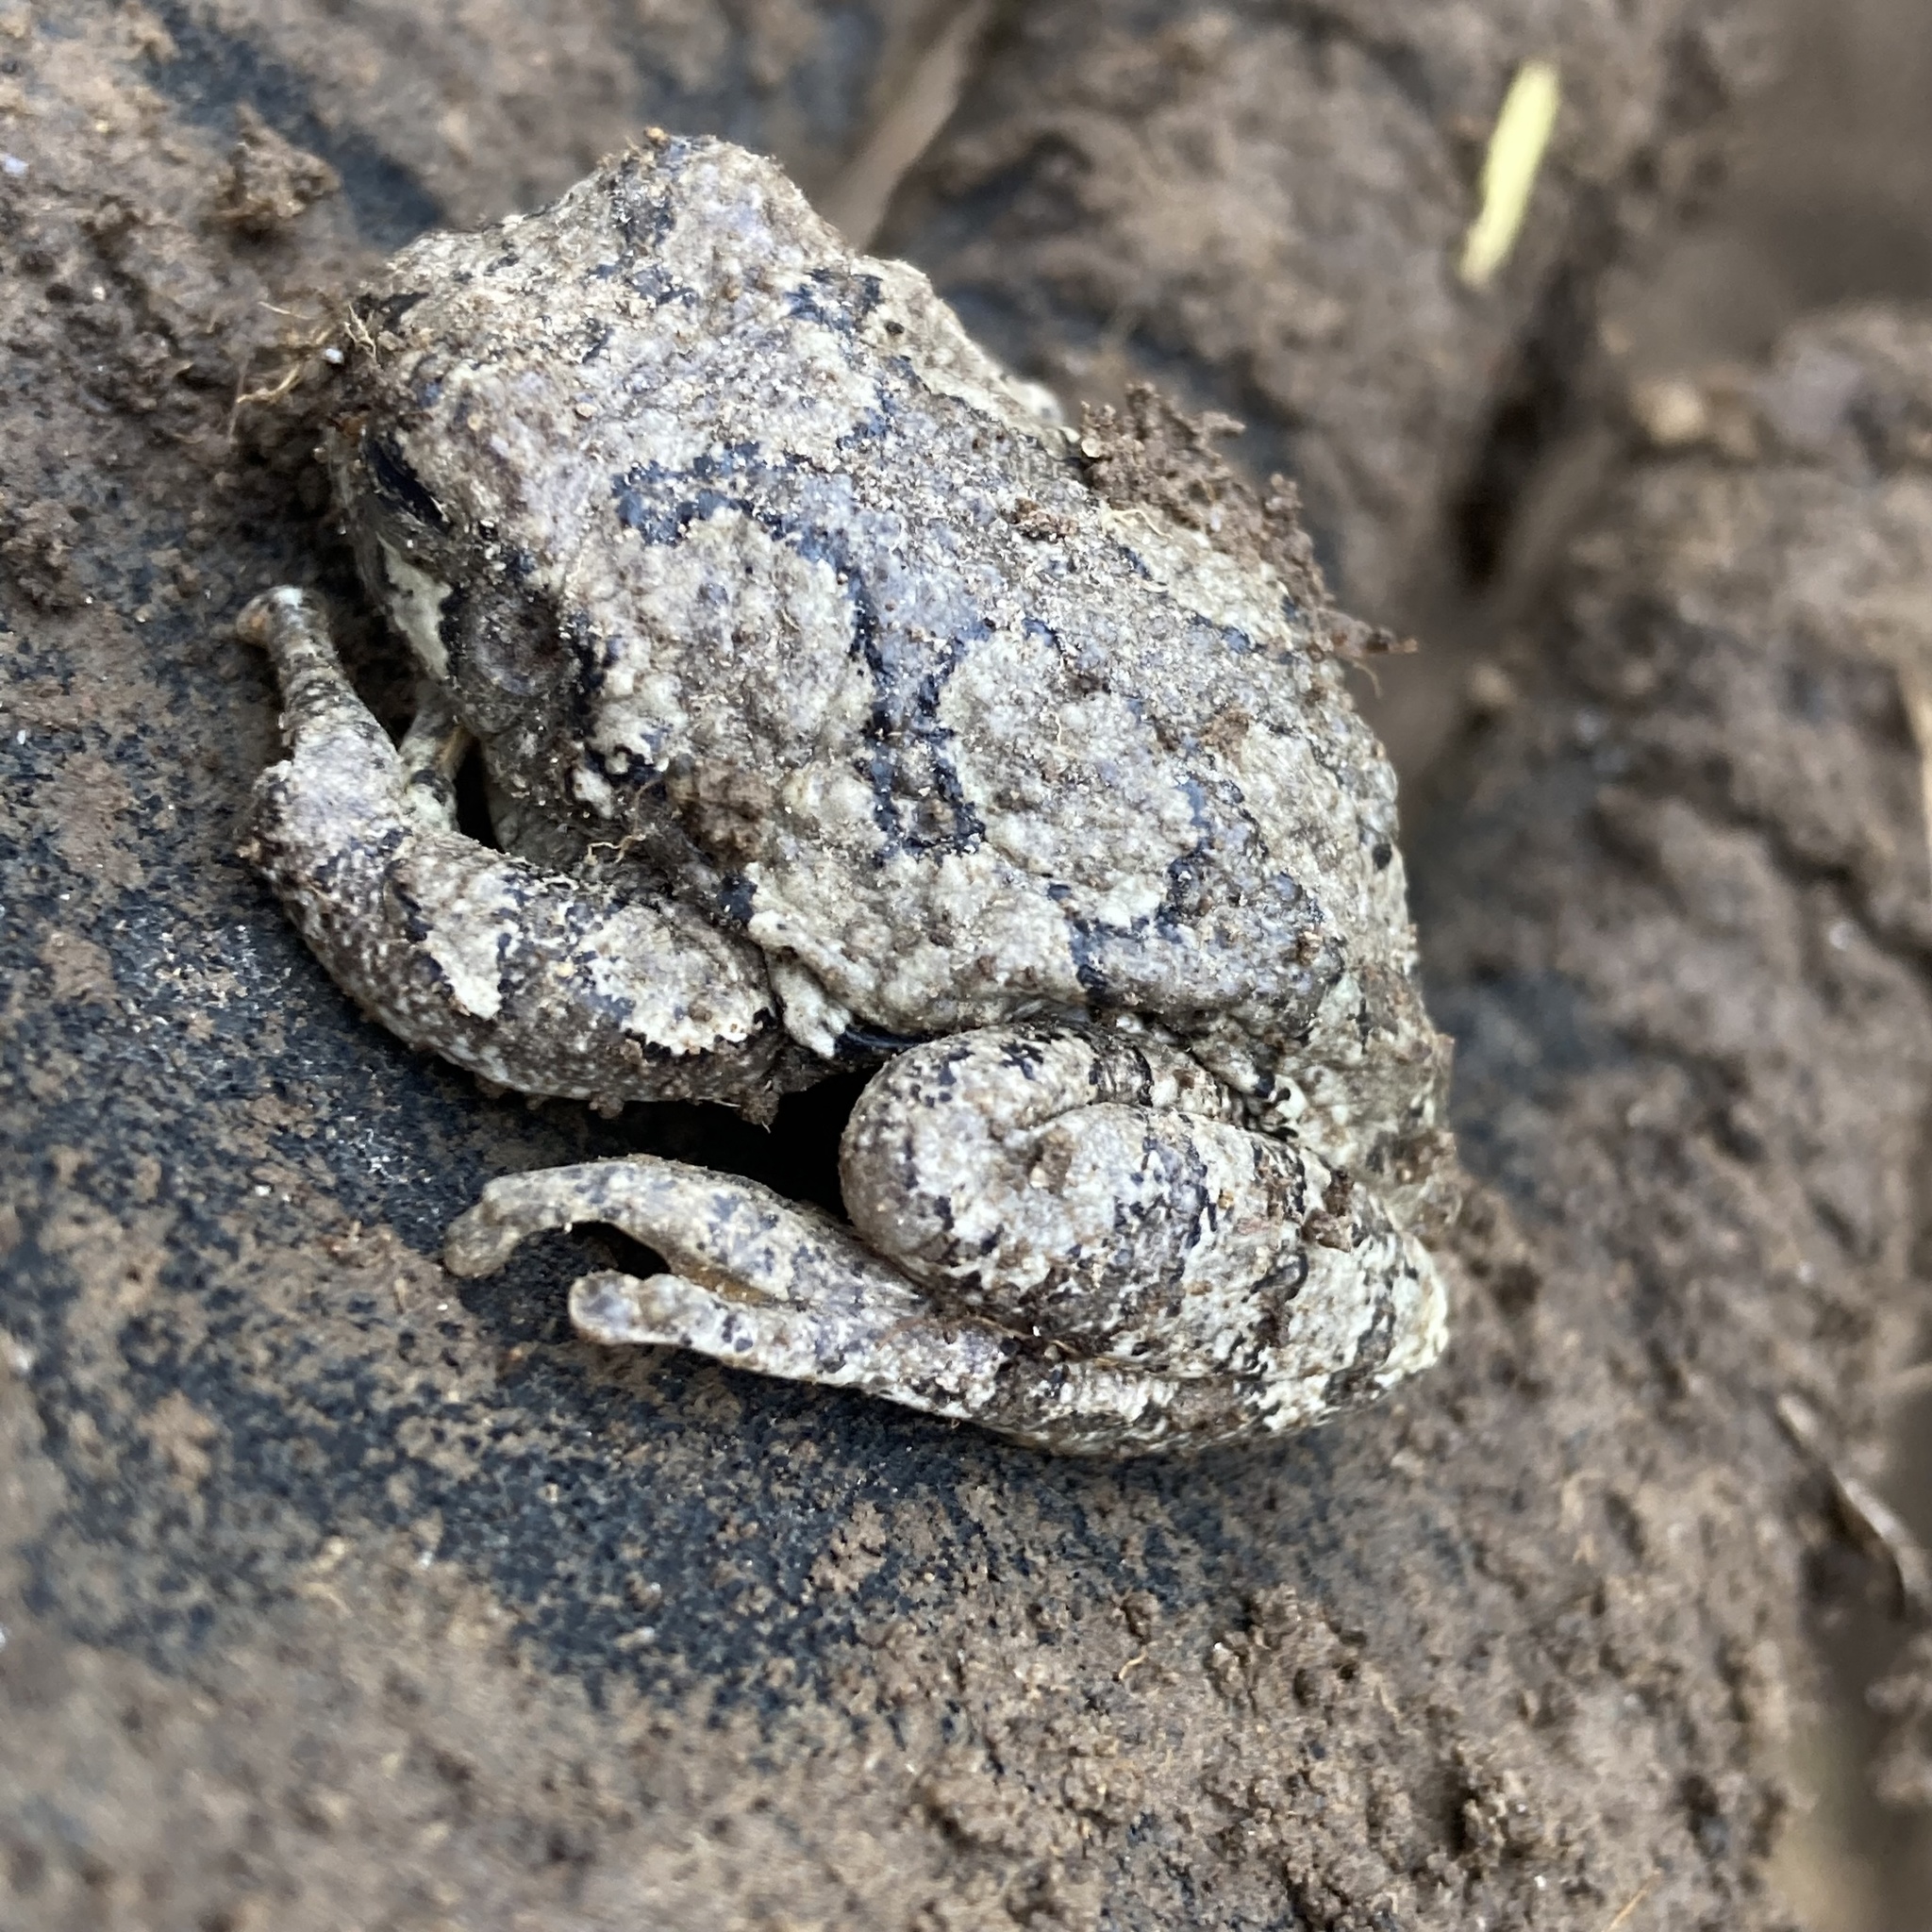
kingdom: Animalia
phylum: Chordata
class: Amphibia
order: Anura
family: Hylidae
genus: Hyla
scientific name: Hyla
